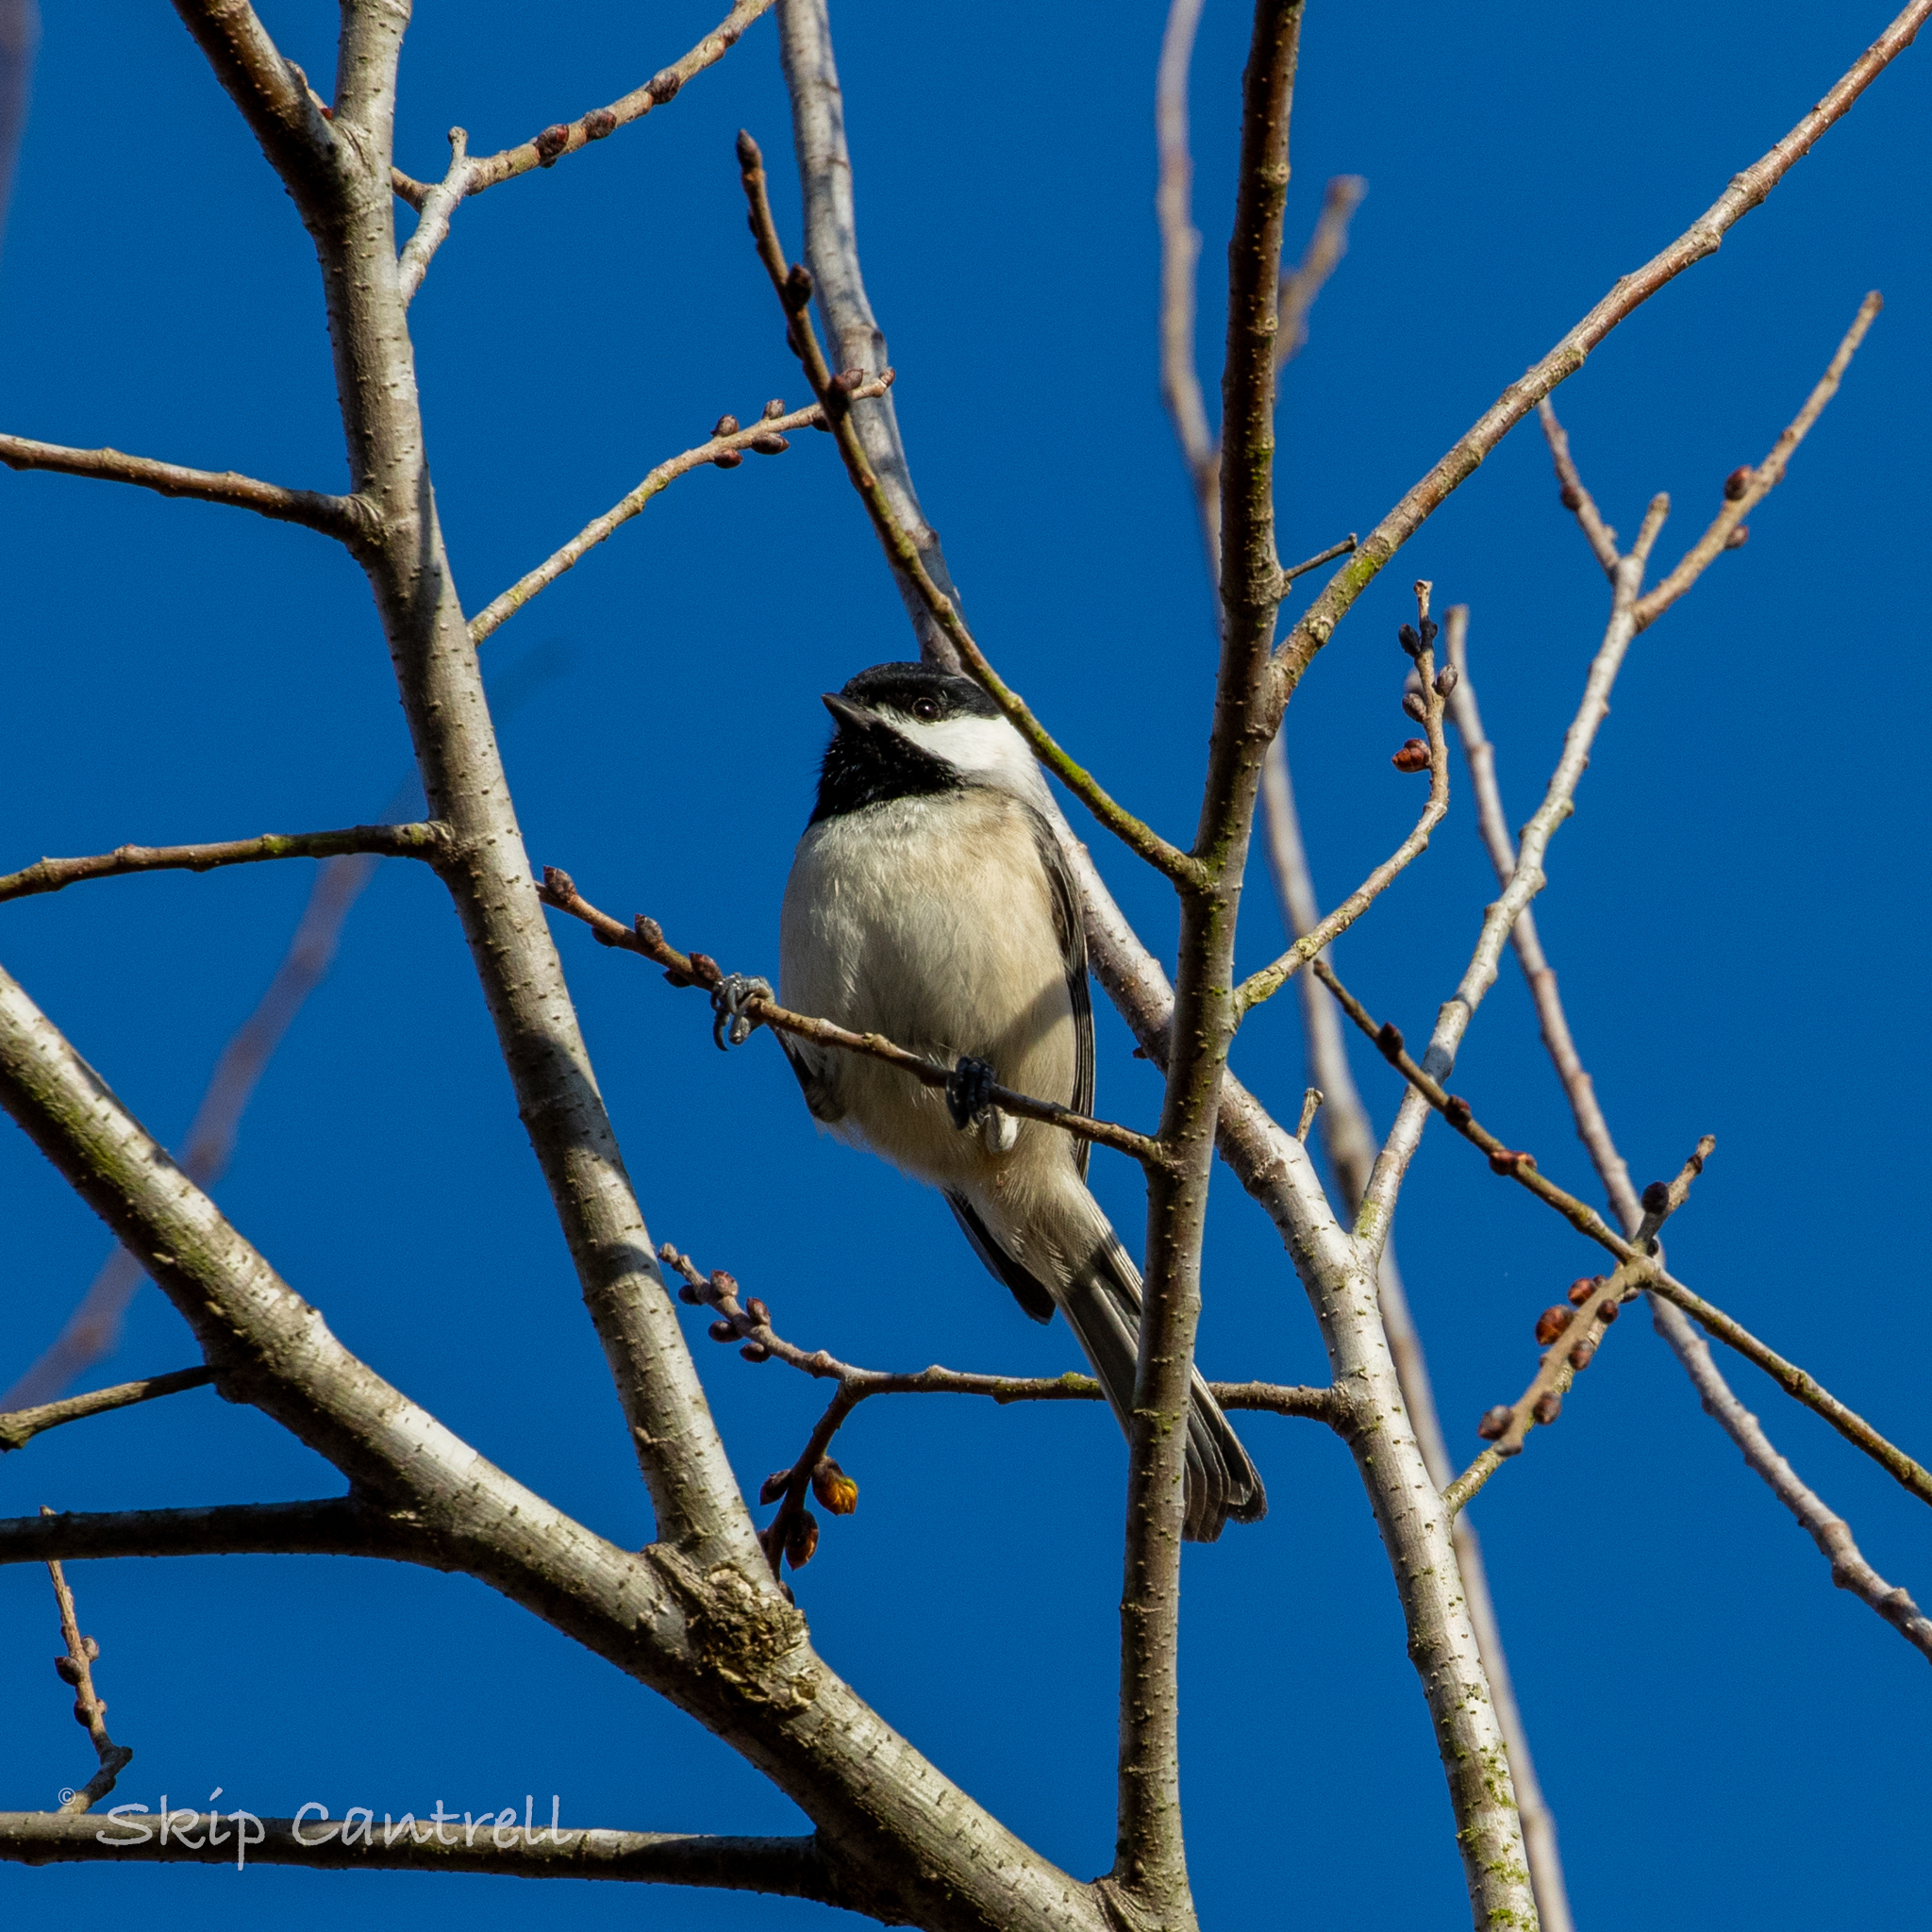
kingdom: Animalia
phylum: Chordata
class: Aves
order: Passeriformes
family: Paridae
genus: Poecile
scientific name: Poecile carolinensis
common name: Carolina chickadee
